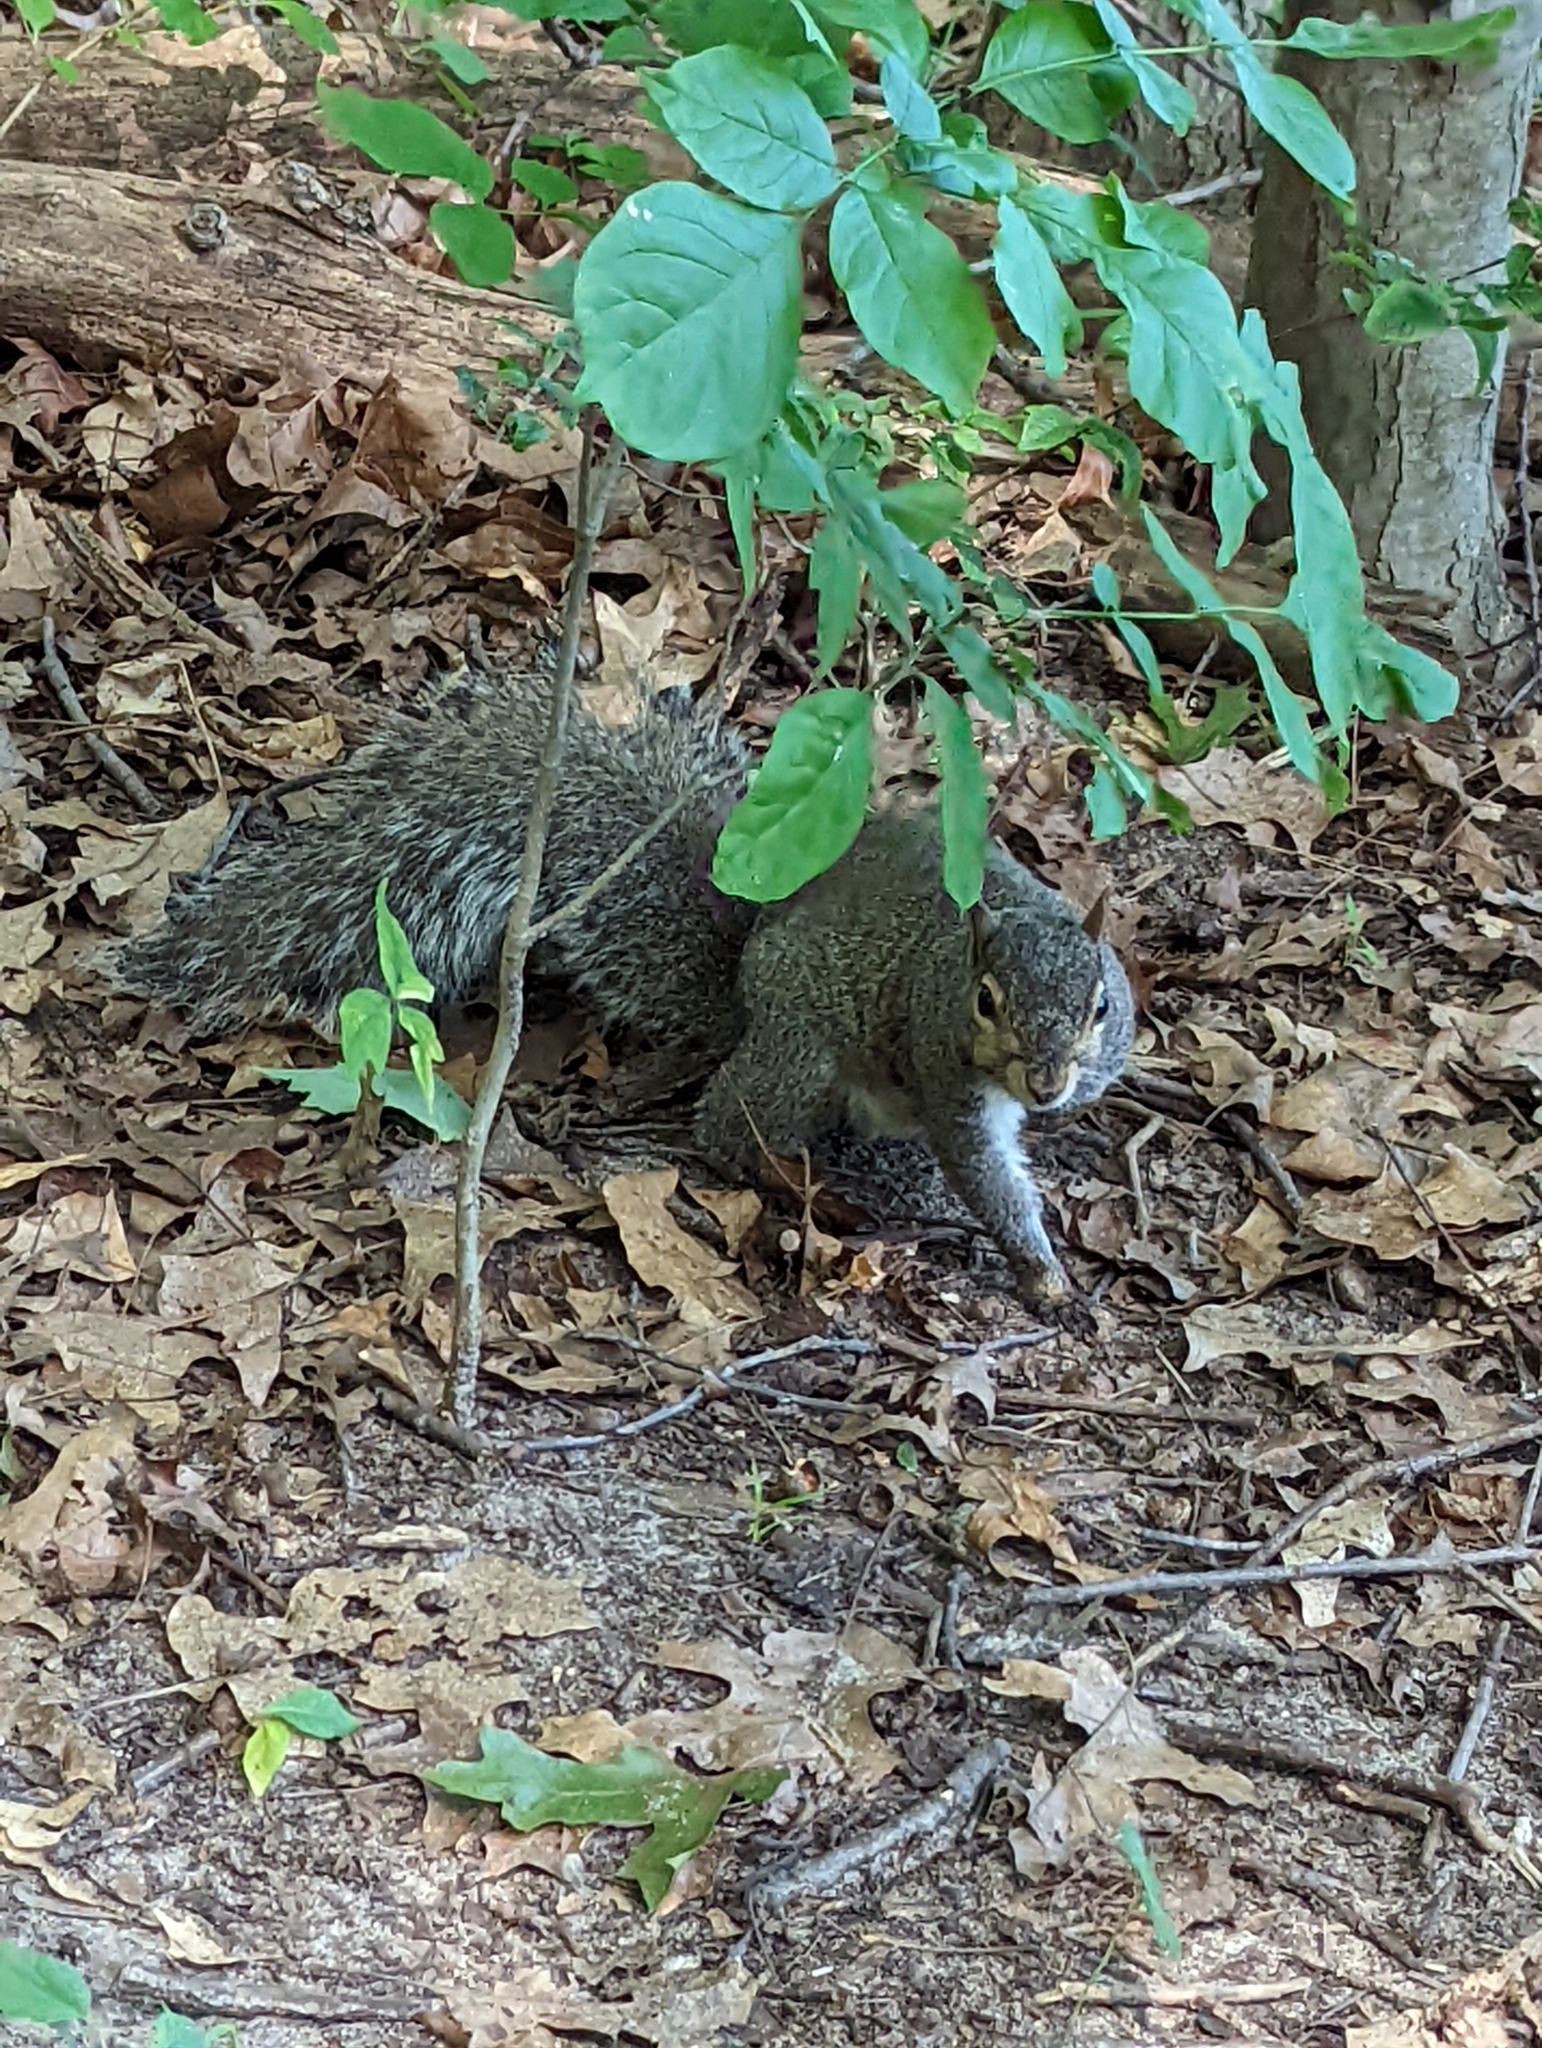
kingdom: Animalia
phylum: Chordata
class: Mammalia
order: Rodentia
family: Sciuridae
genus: Sciurus
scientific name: Sciurus carolinensis
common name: Eastern gray squirrel
